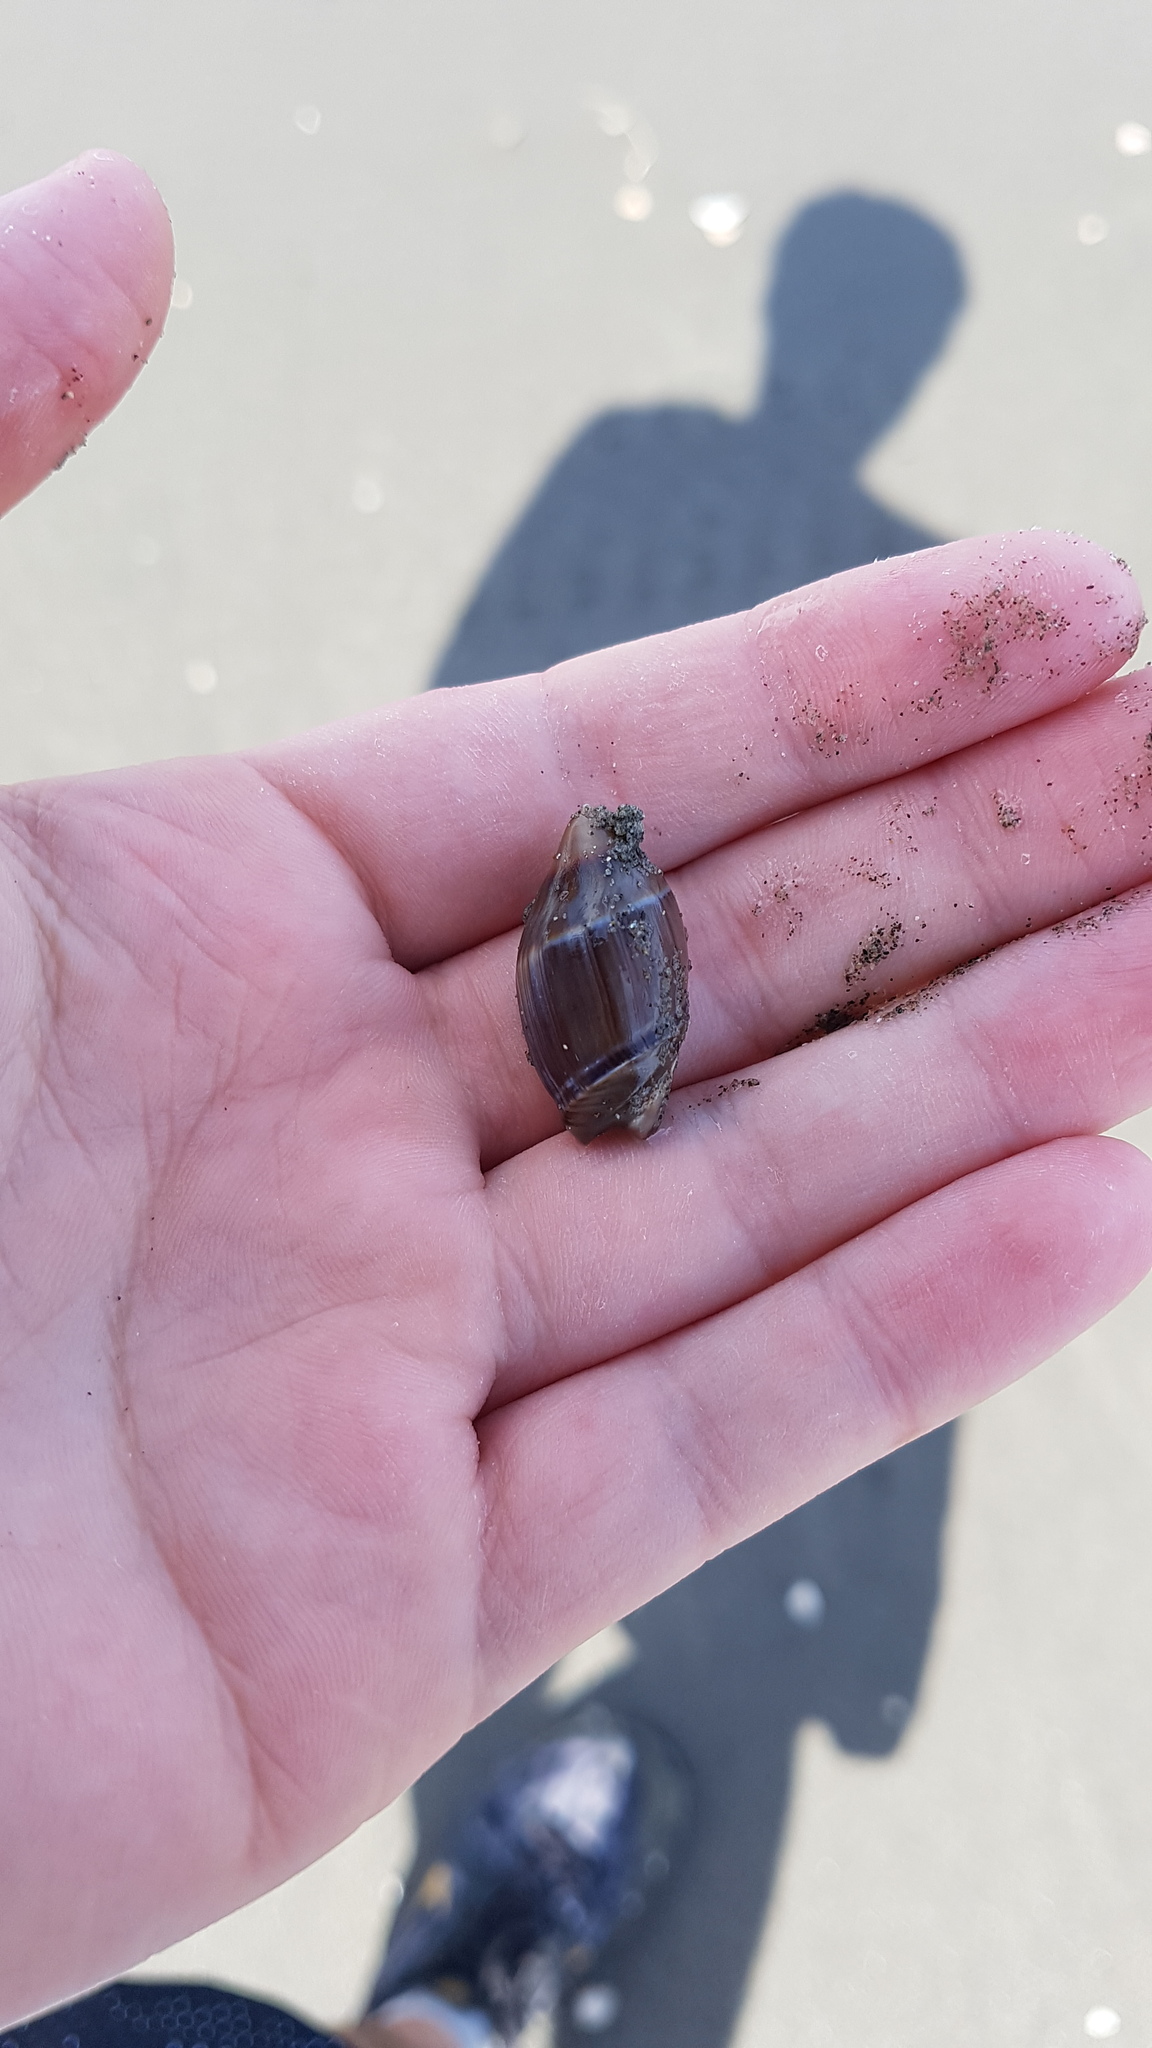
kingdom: Animalia
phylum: Mollusca
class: Gastropoda
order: Neogastropoda
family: Ancillariidae
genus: Amalda
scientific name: Amalda australis
